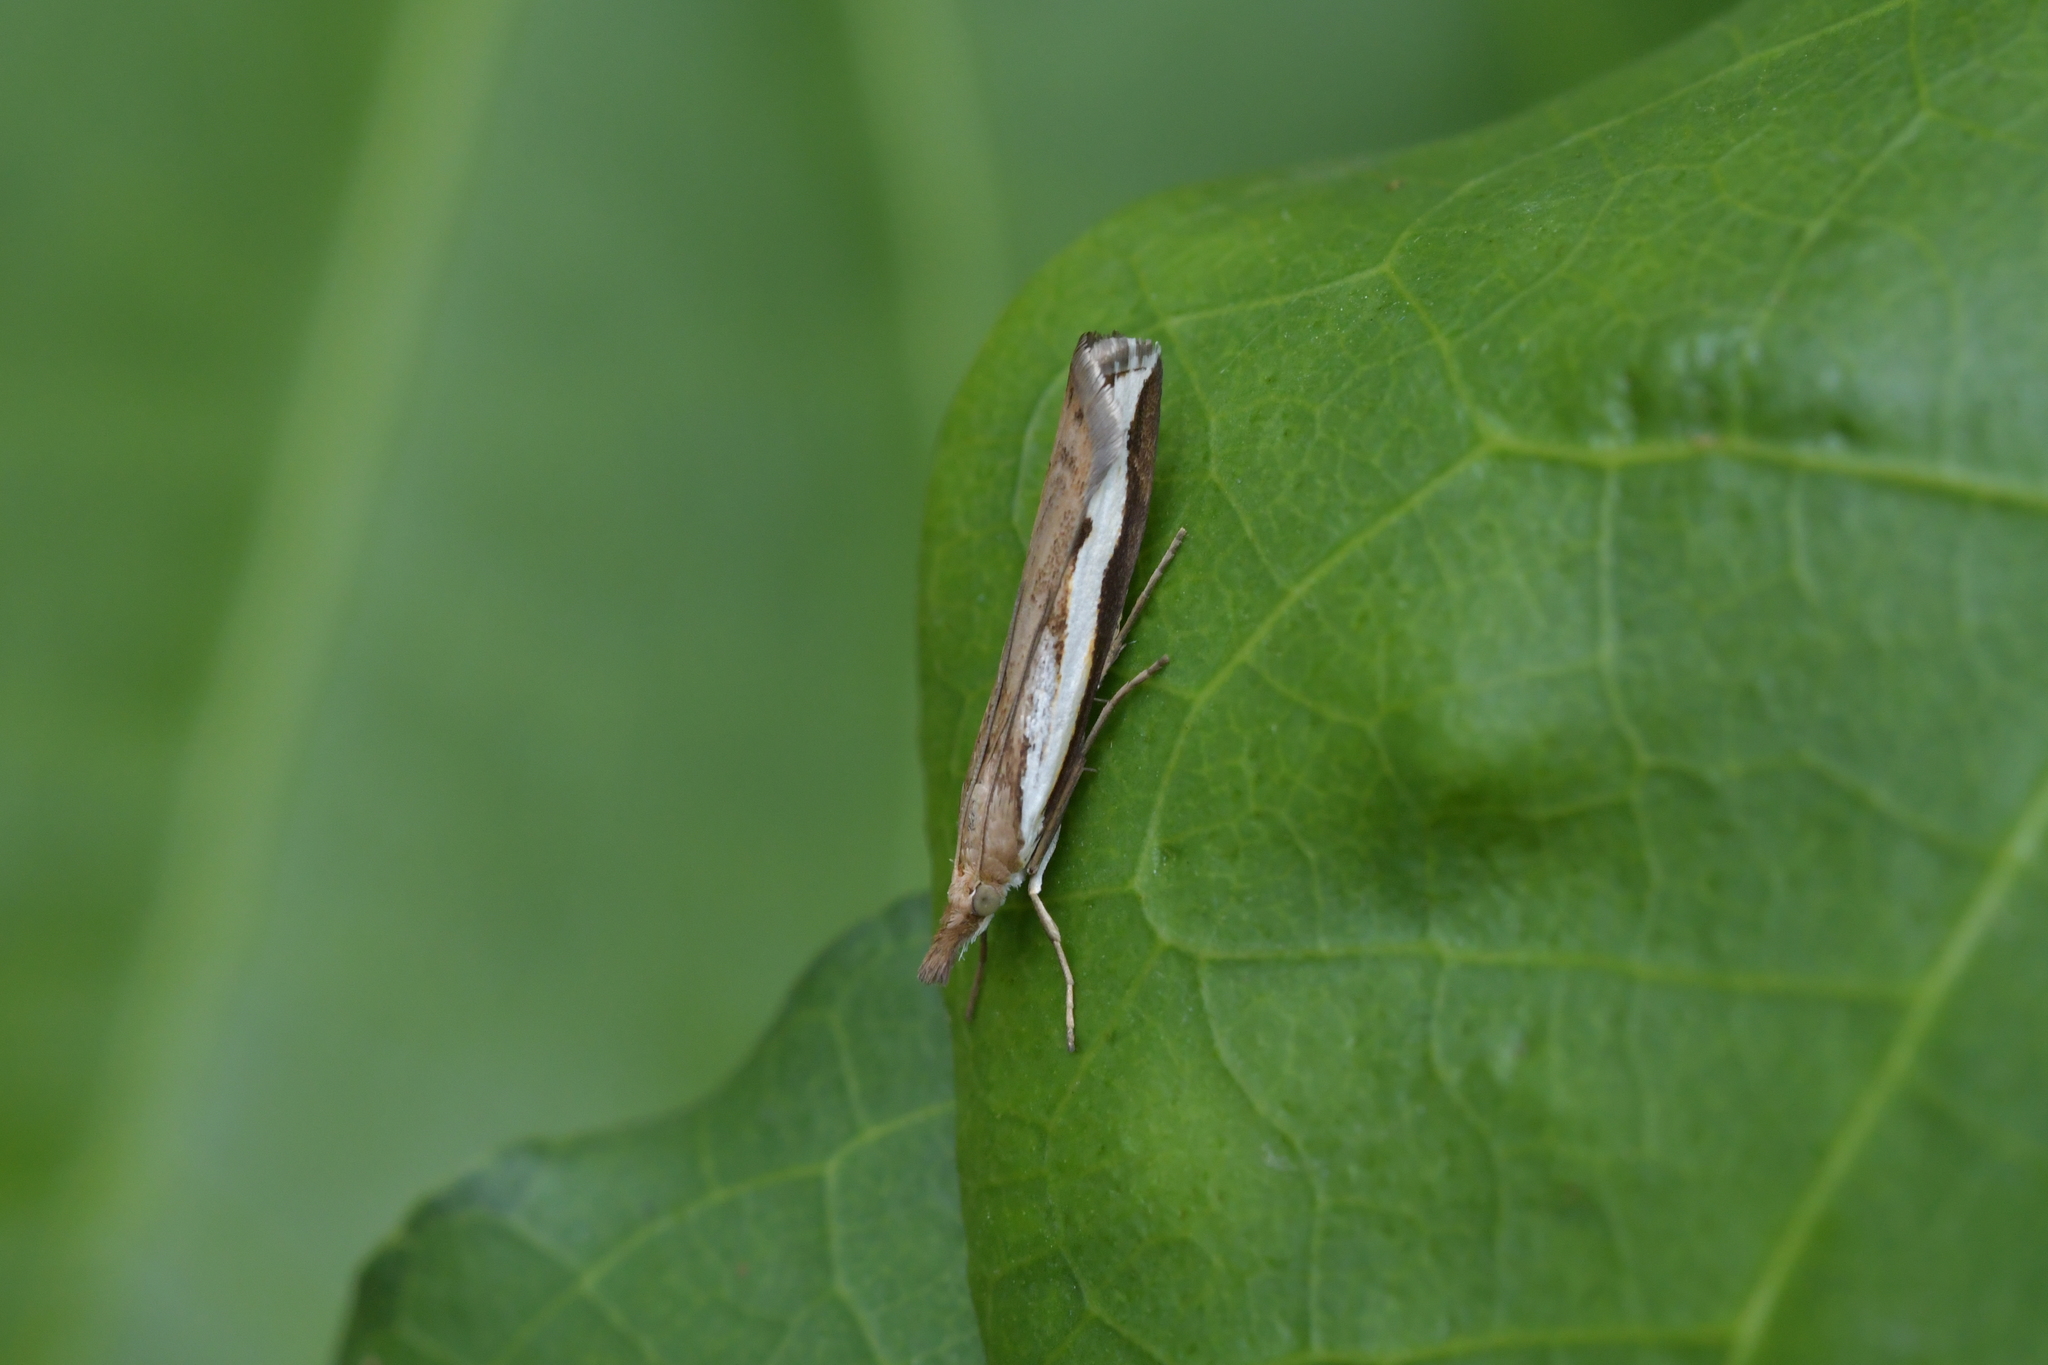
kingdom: Animalia
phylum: Arthropoda
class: Insecta
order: Lepidoptera
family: Crambidae
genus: Orocrambus
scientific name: Orocrambus flexuosellus
